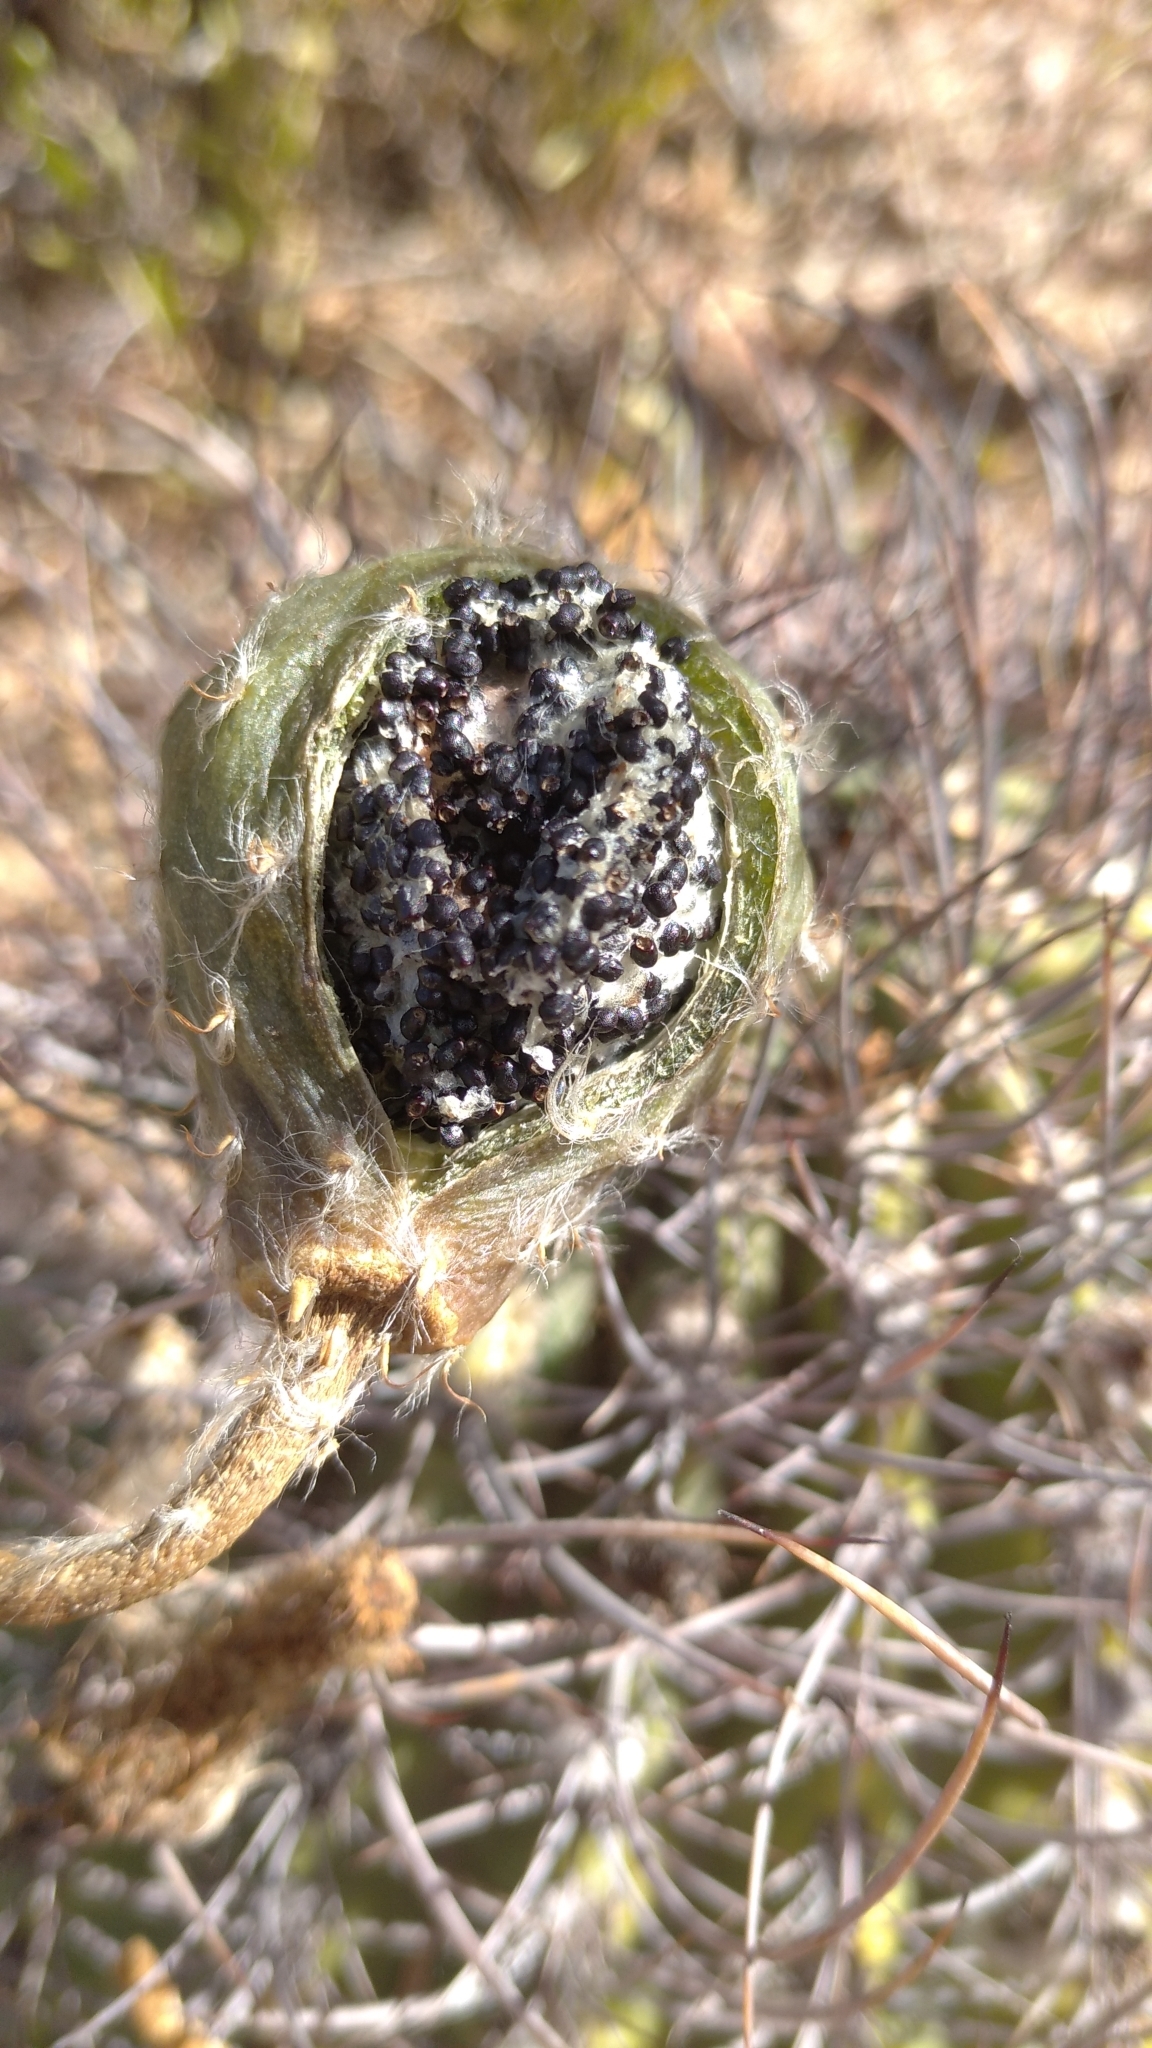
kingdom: Plantae
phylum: Tracheophyta
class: Magnoliopsida
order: Caryophyllales
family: Cactaceae
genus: Acanthocalycium
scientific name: Acanthocalycium leucanthum
